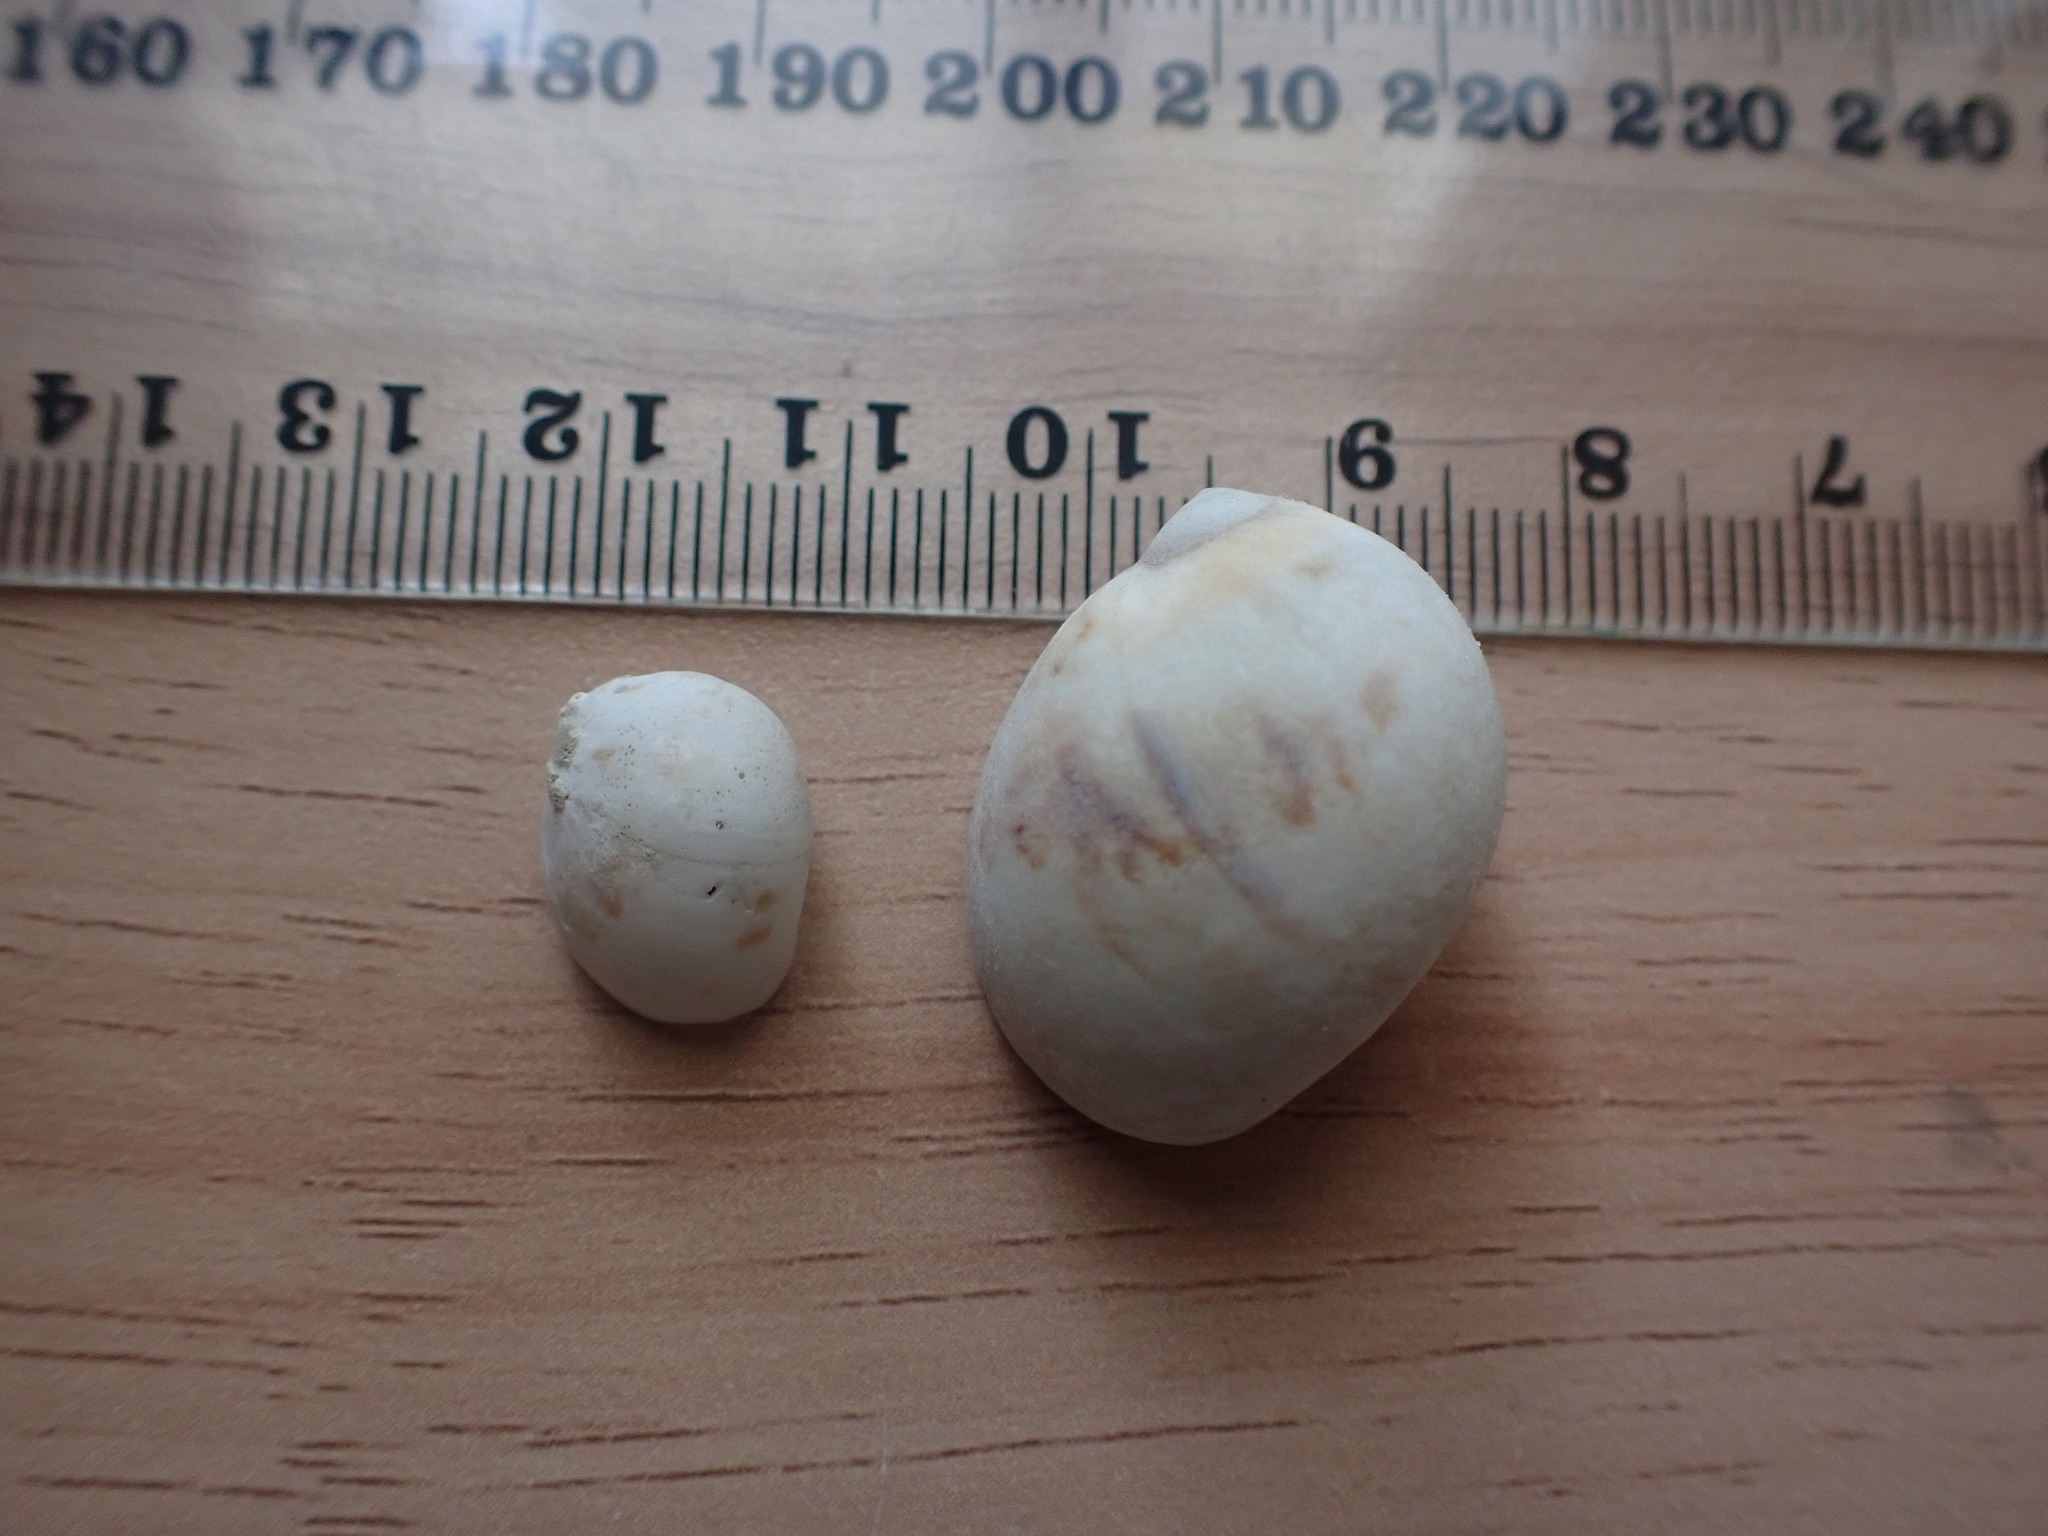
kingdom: Animalia
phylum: Mollusca
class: Gastropoda
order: Littorinimorpha
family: Naticidae
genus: Mammilla
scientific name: Mammilla simiae
